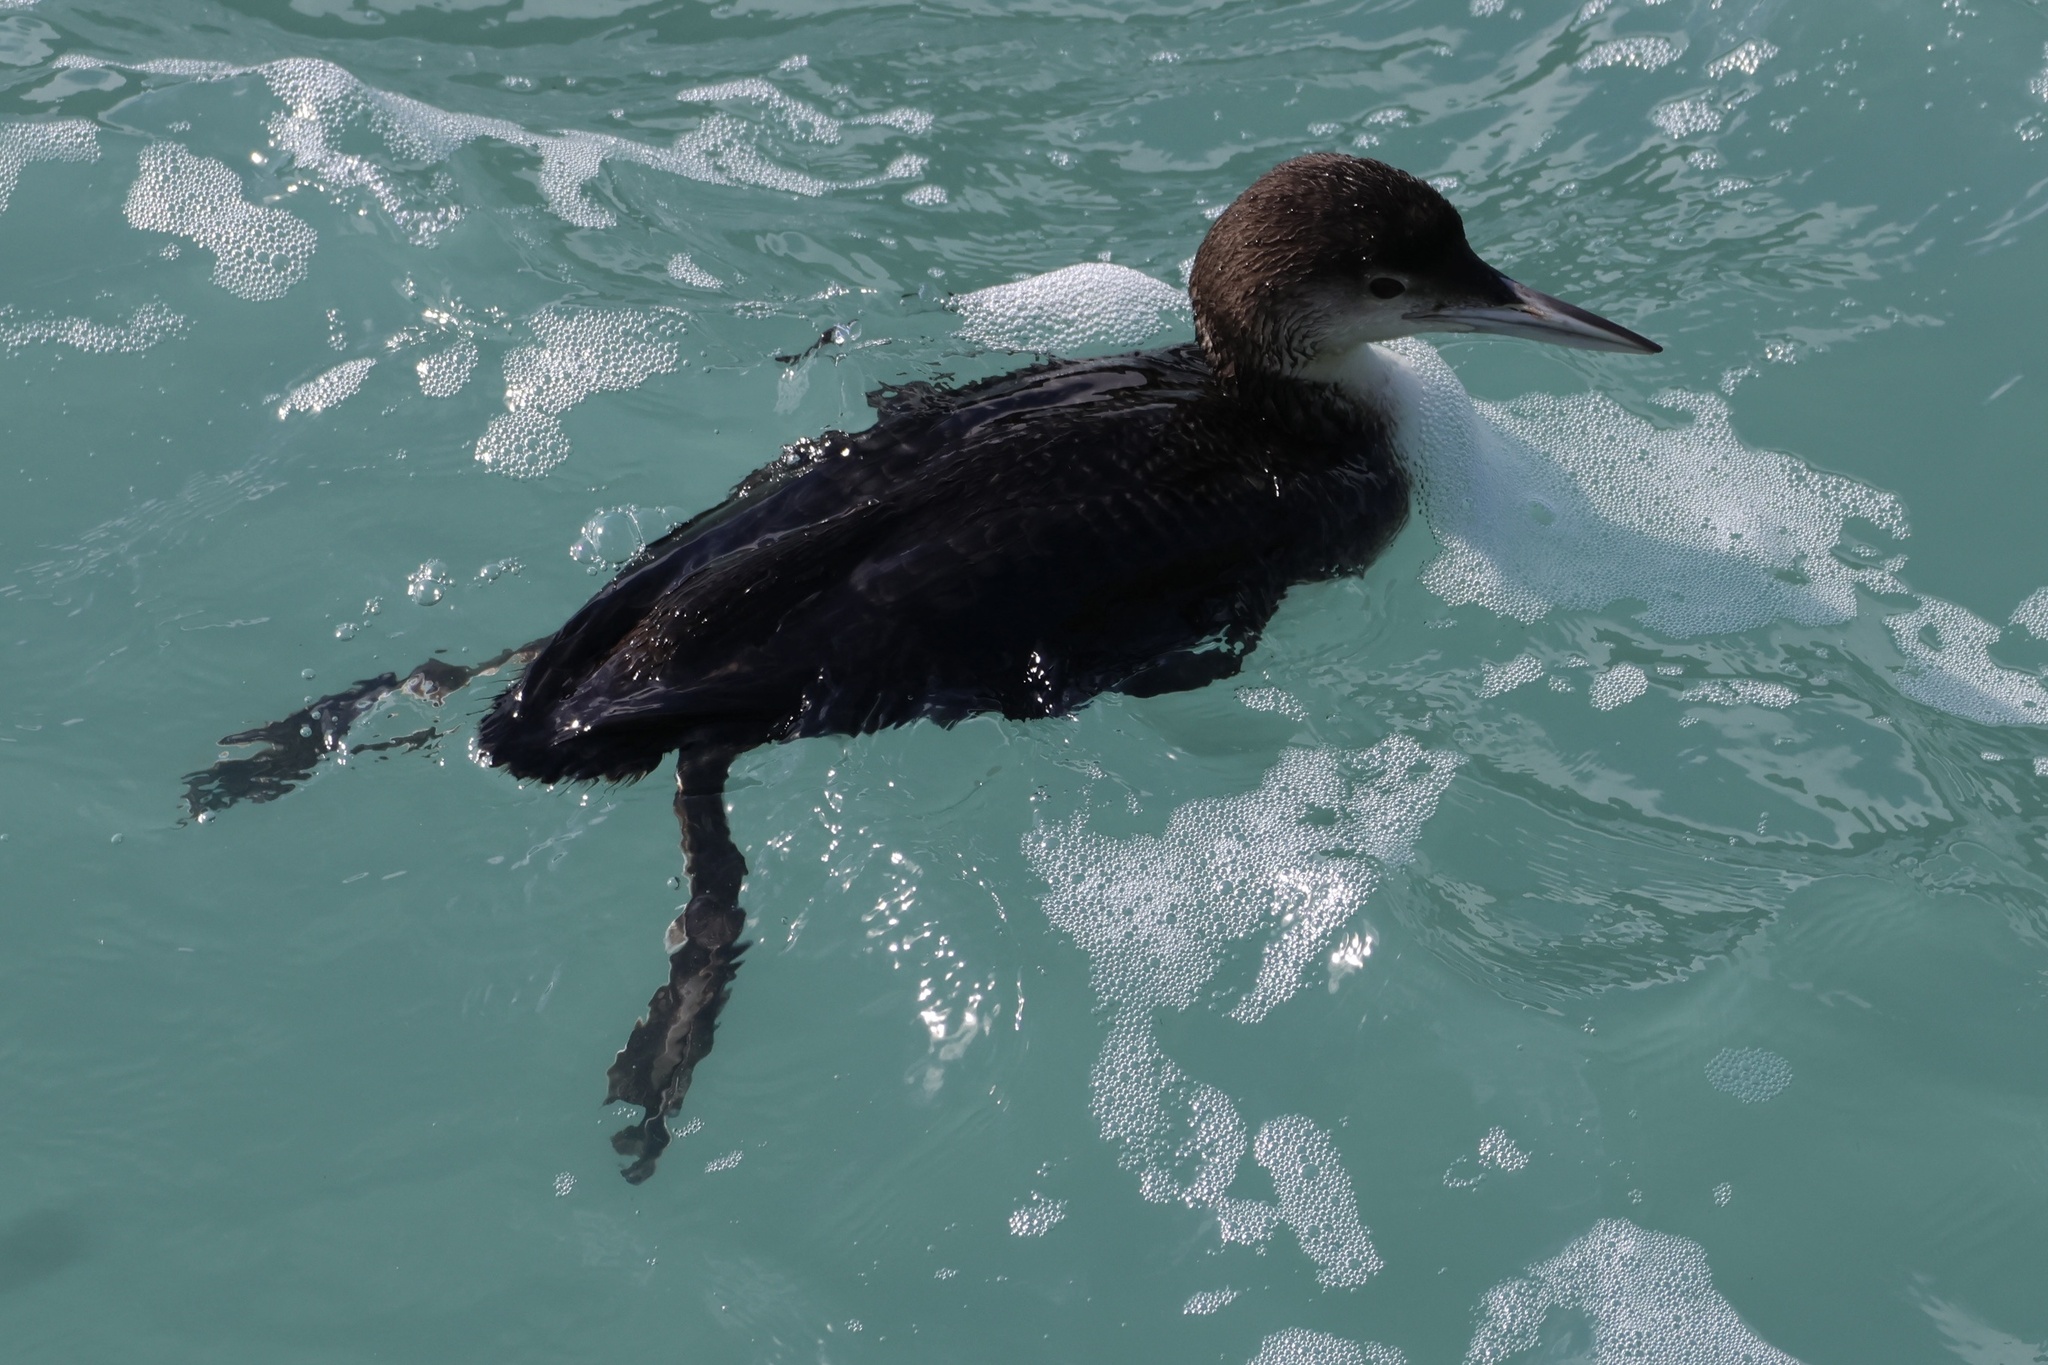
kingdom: Animalia
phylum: Chordata
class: Aves
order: Gaviiformes
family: Gaviidae
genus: Gavia
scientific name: Gavia immer
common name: Common loon
